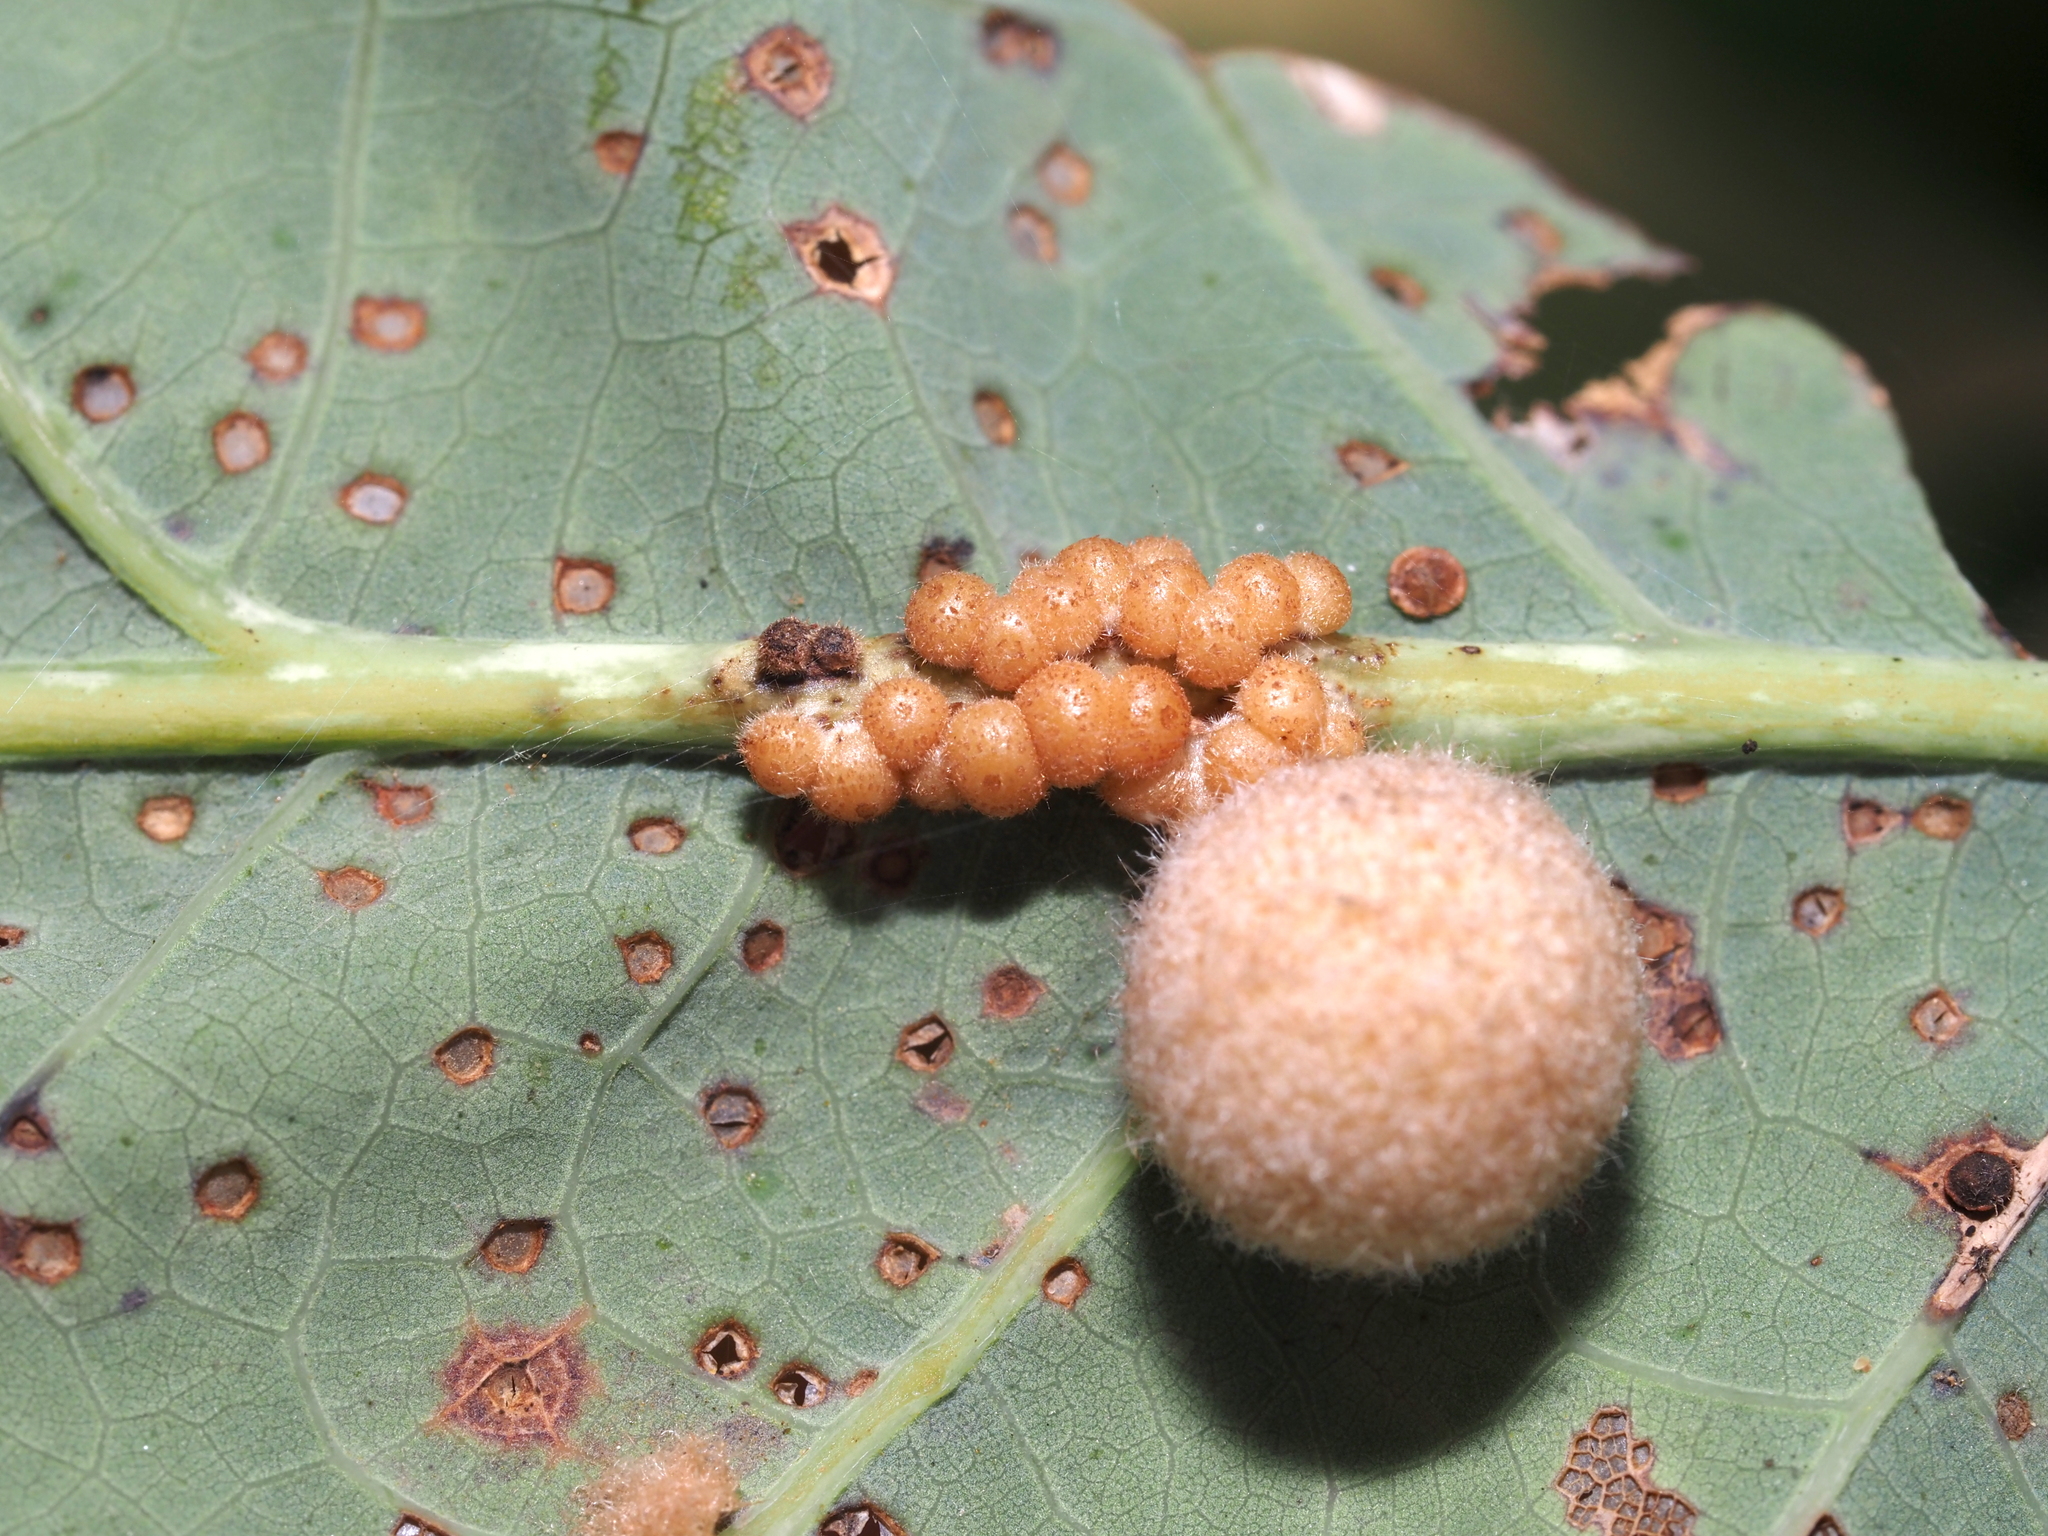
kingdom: Animalia
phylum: Arthropoda
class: Insecta
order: Hymenoptera
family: Cynipidae
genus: Philonix
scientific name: Philonix fulvicollis
